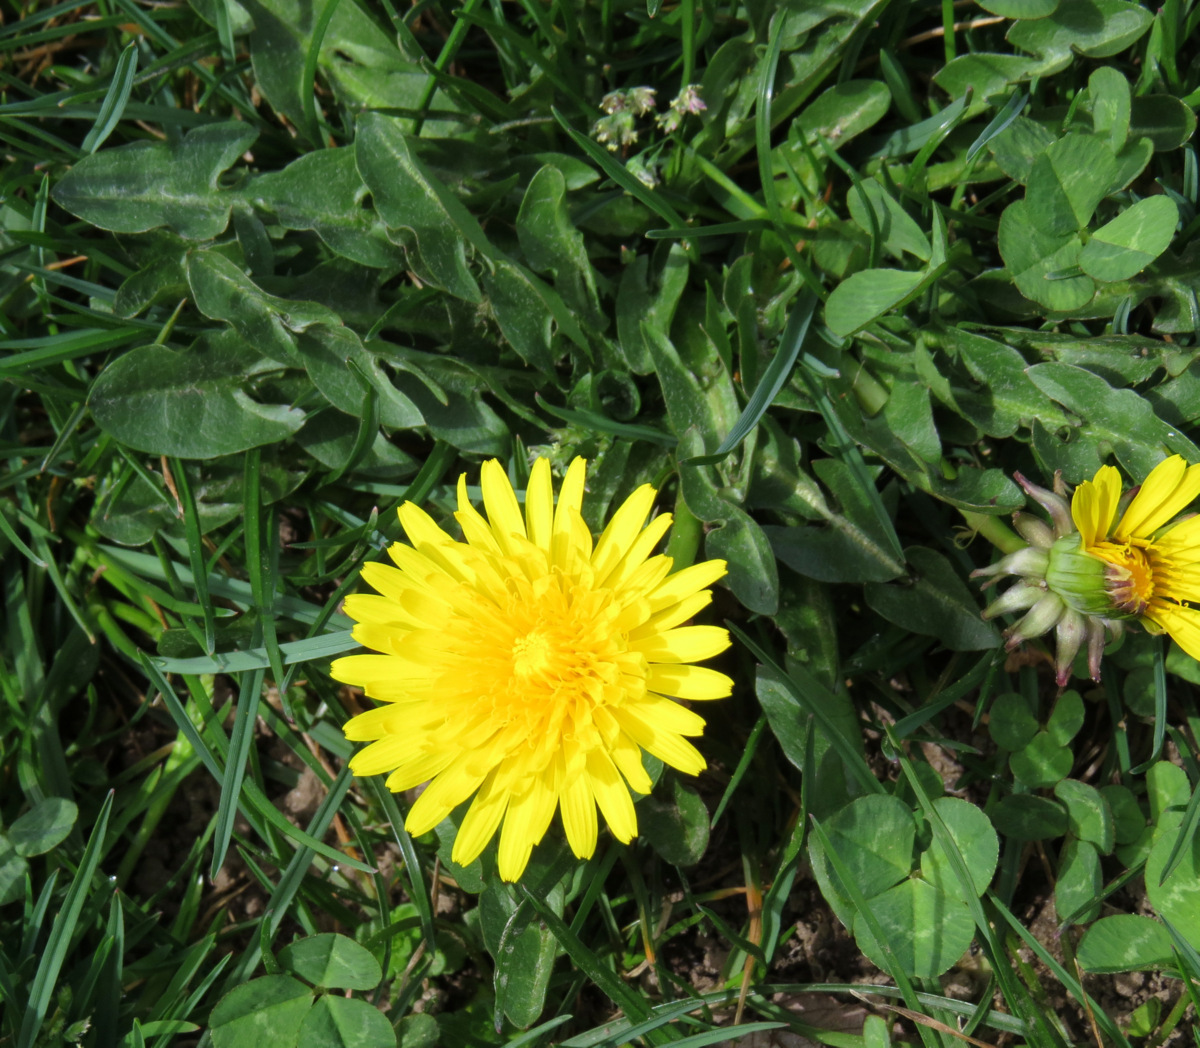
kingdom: Plantae
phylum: Tracheophyta
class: Magnoliopsida
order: Asterales
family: Asteraceae
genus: Taraxacum
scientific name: Taraxacum officinale
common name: Common dandelion
